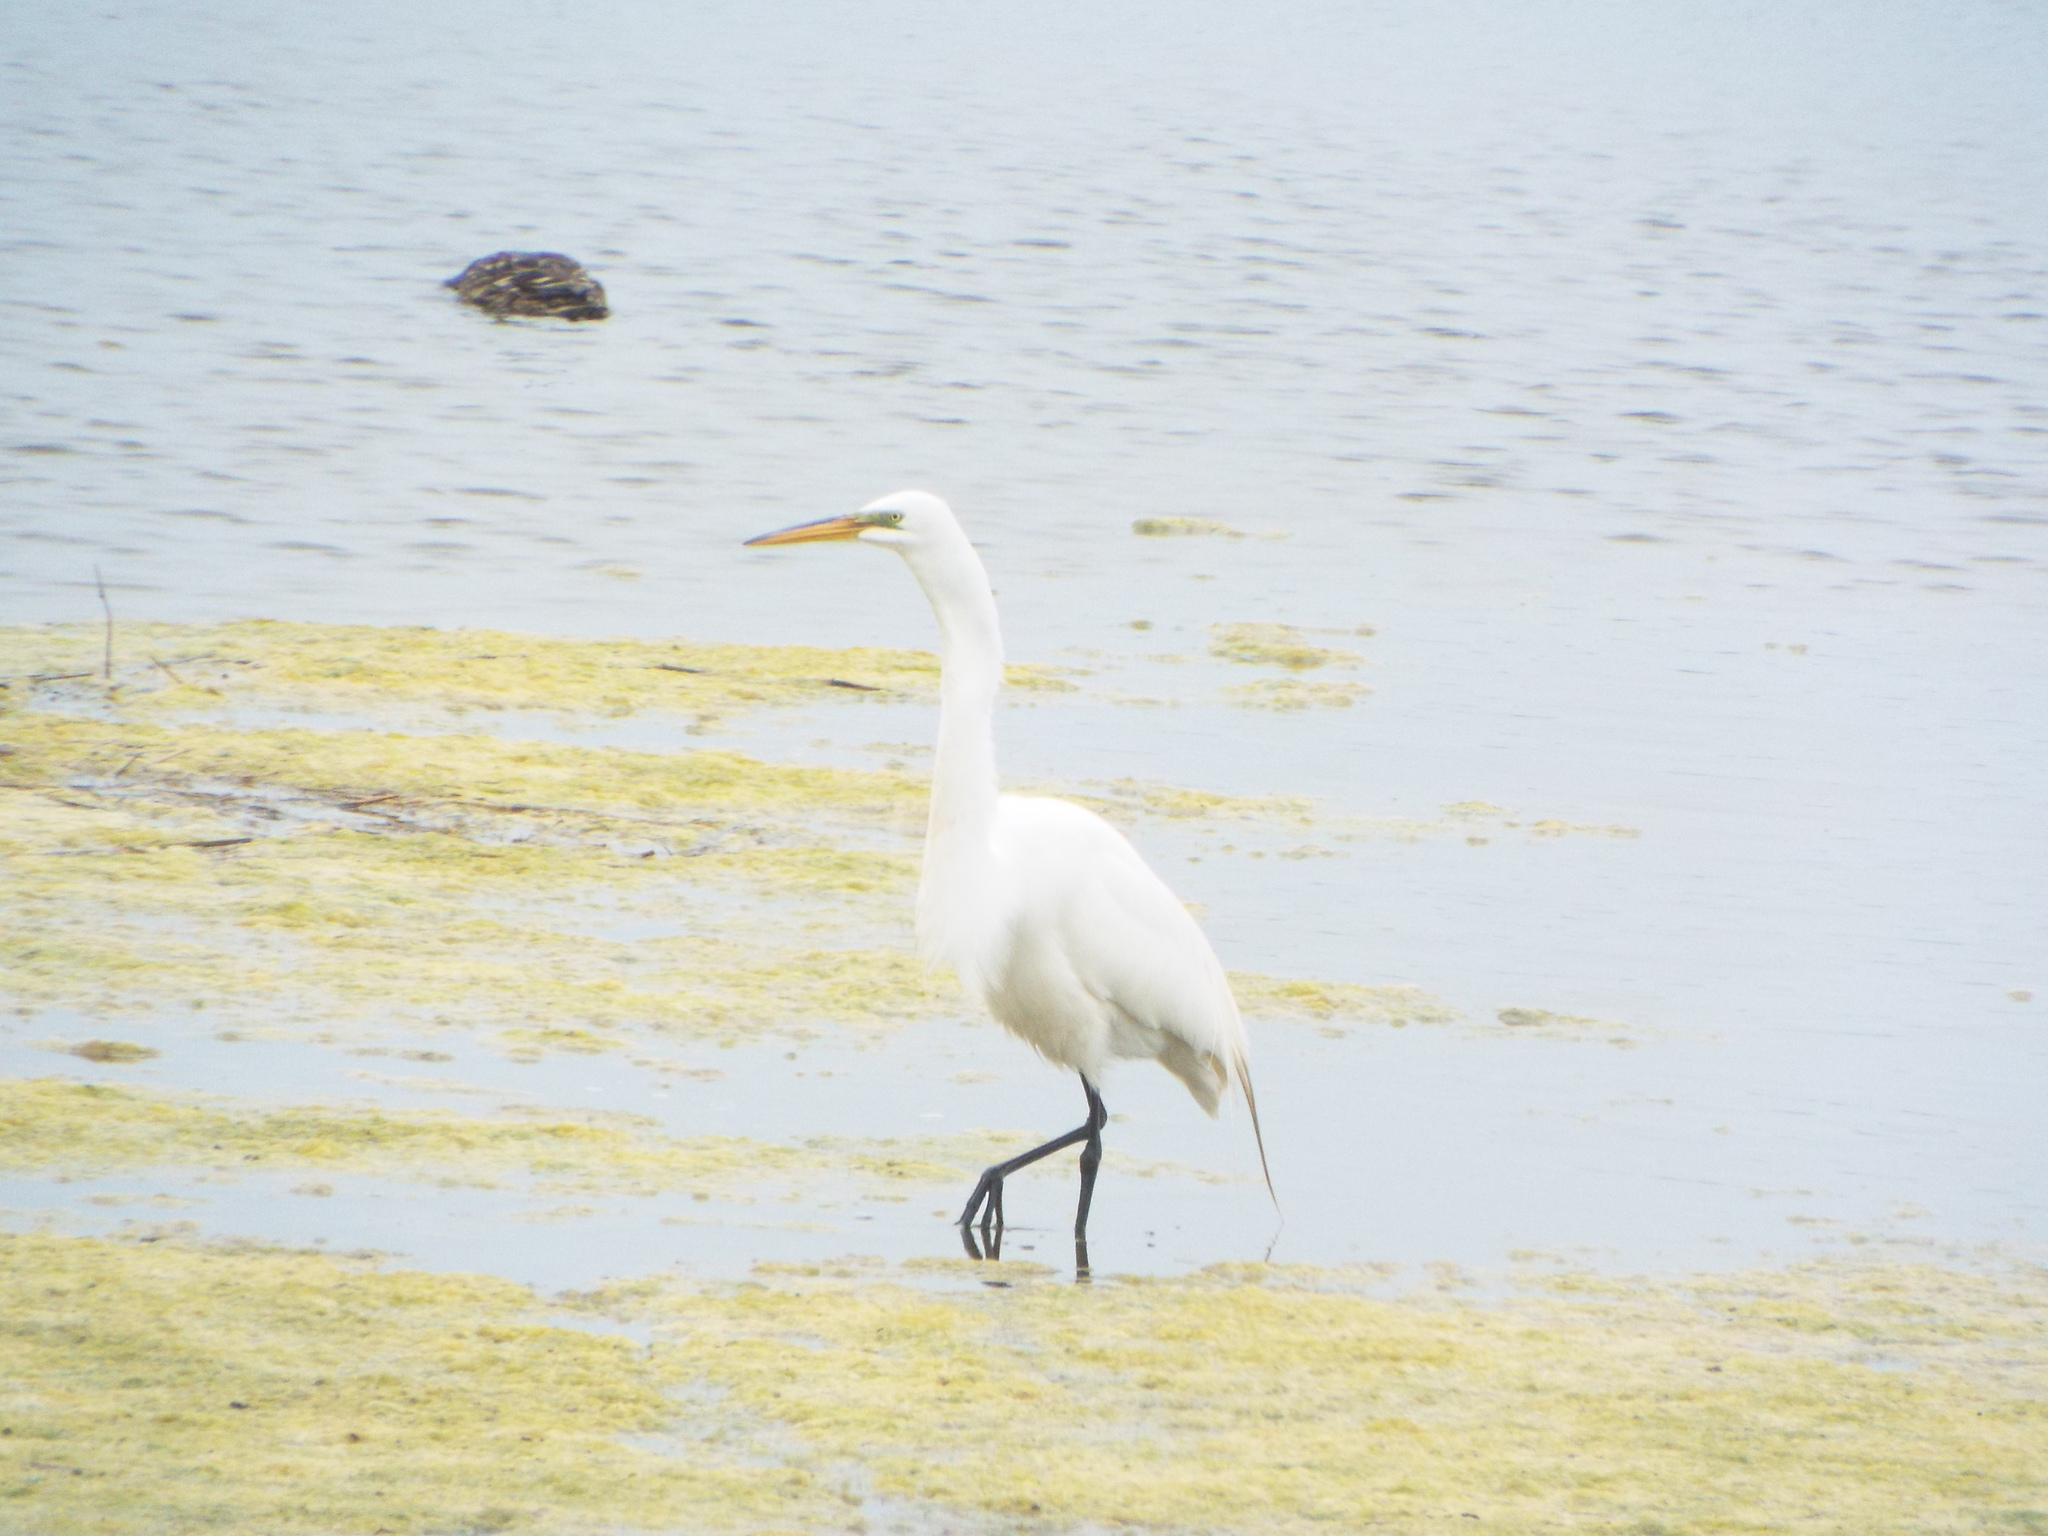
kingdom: Animalia
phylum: Chordata
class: Aves
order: Pelecaniformes
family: Ardeidae
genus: Ardea
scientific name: Ardea alba
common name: Great egret
